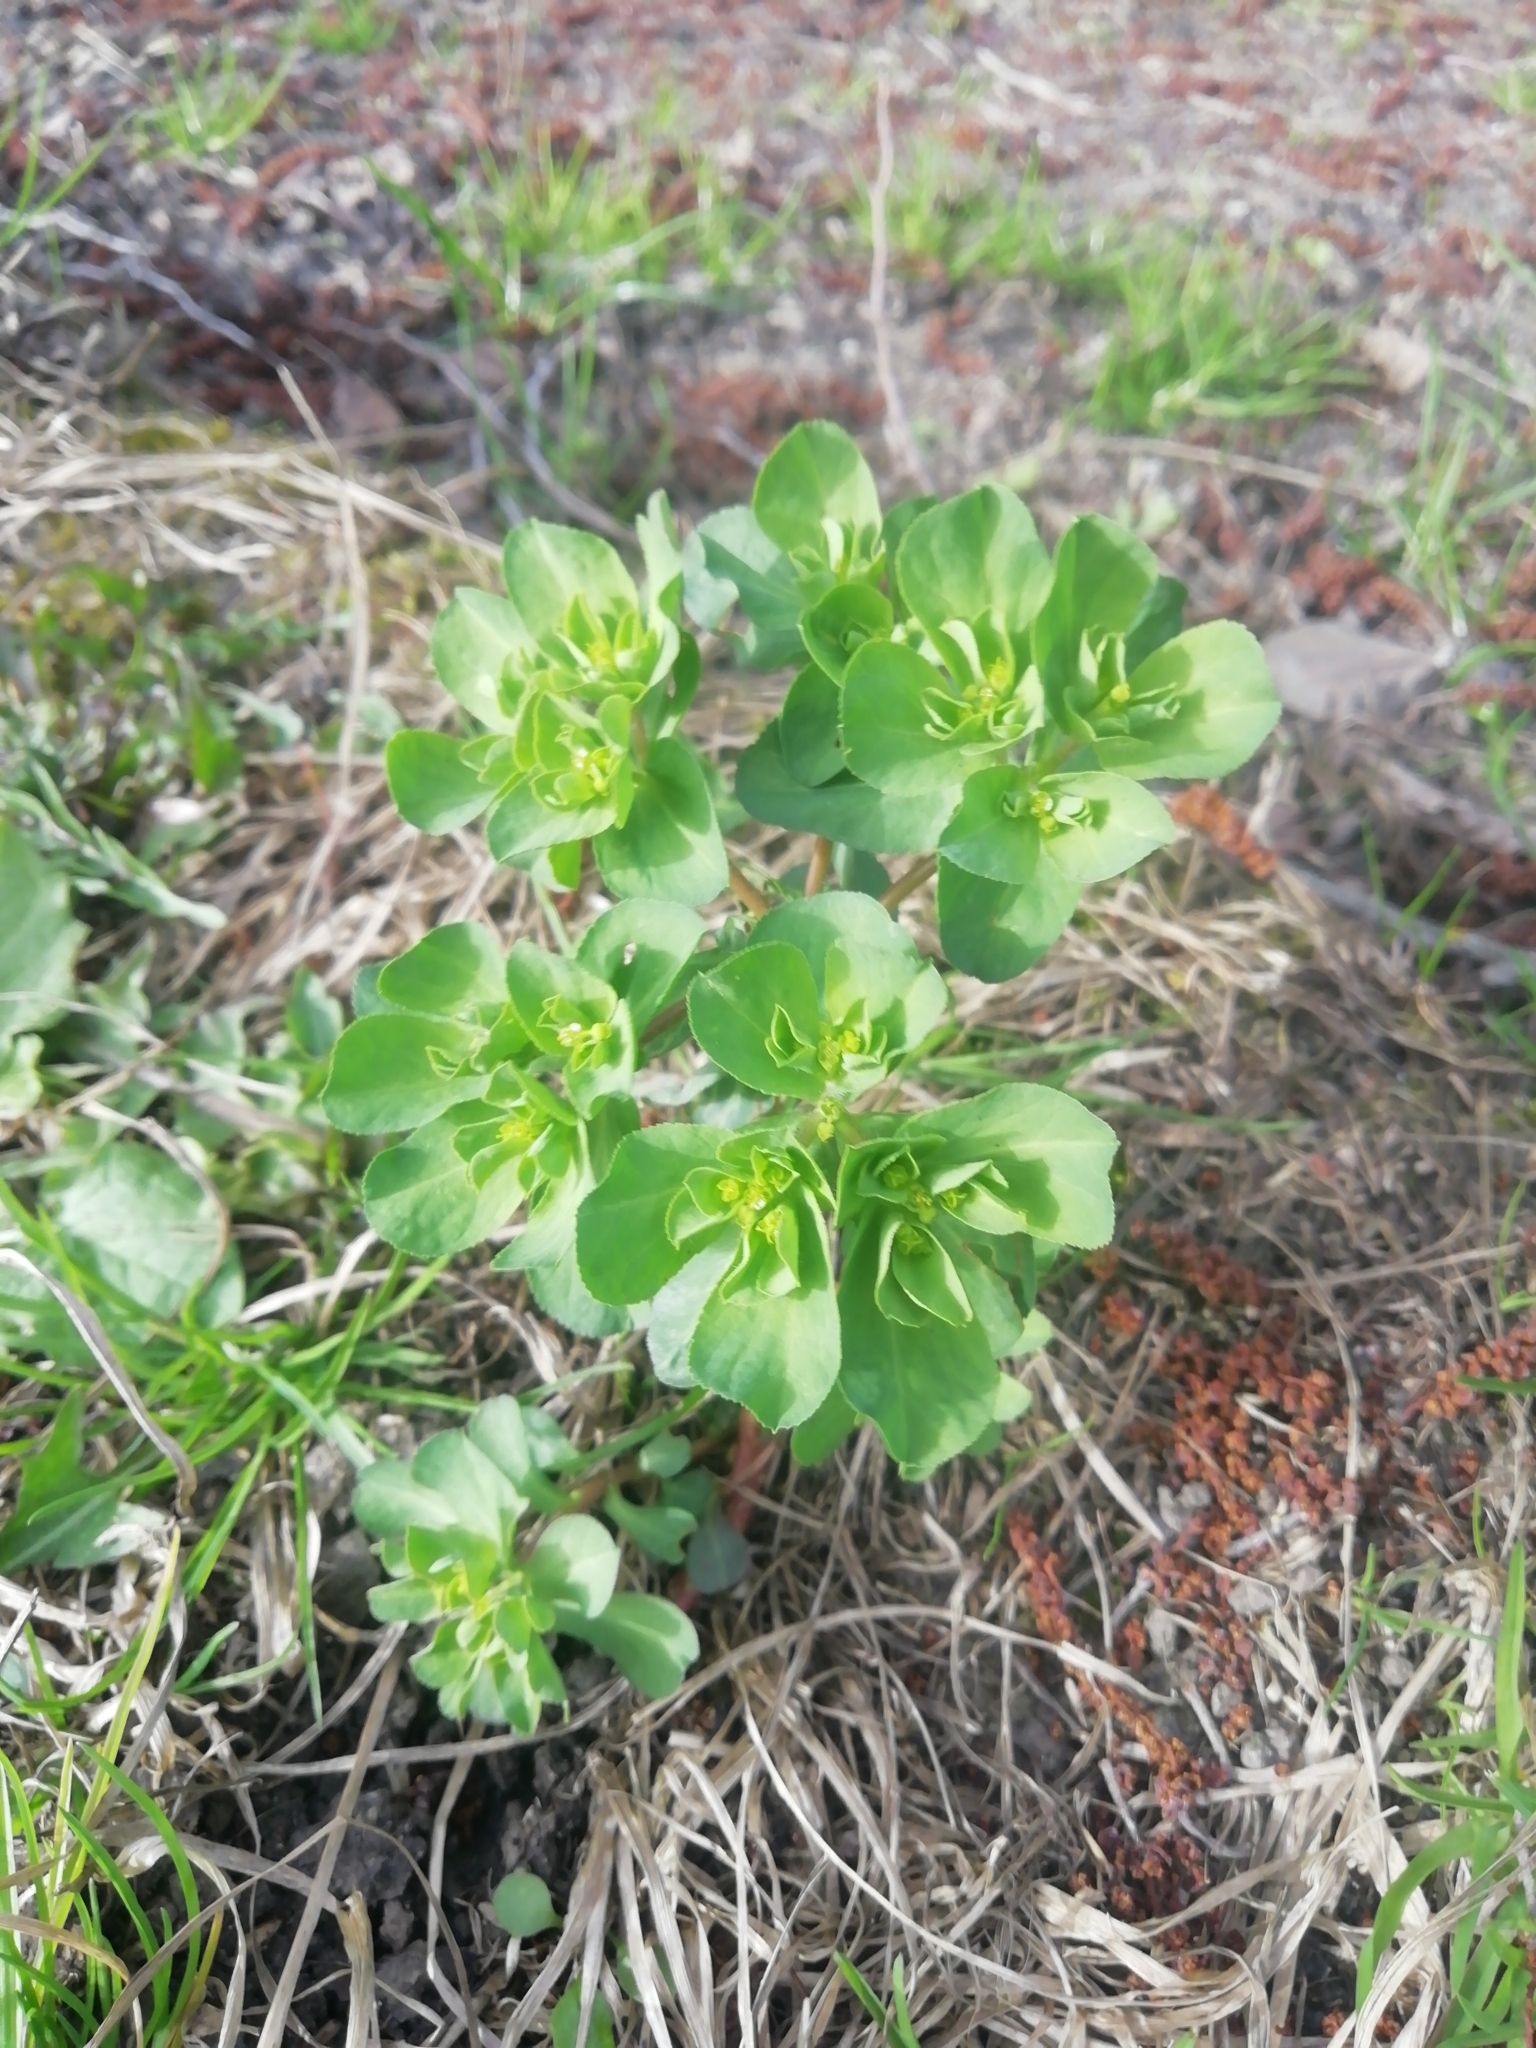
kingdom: Plantae
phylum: Tracheophyta
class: Magnoliopsida
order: Malpighiales
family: Euphorbiaceae
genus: Euphorbia
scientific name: Euphorbia helioscopia
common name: Sun spurge
